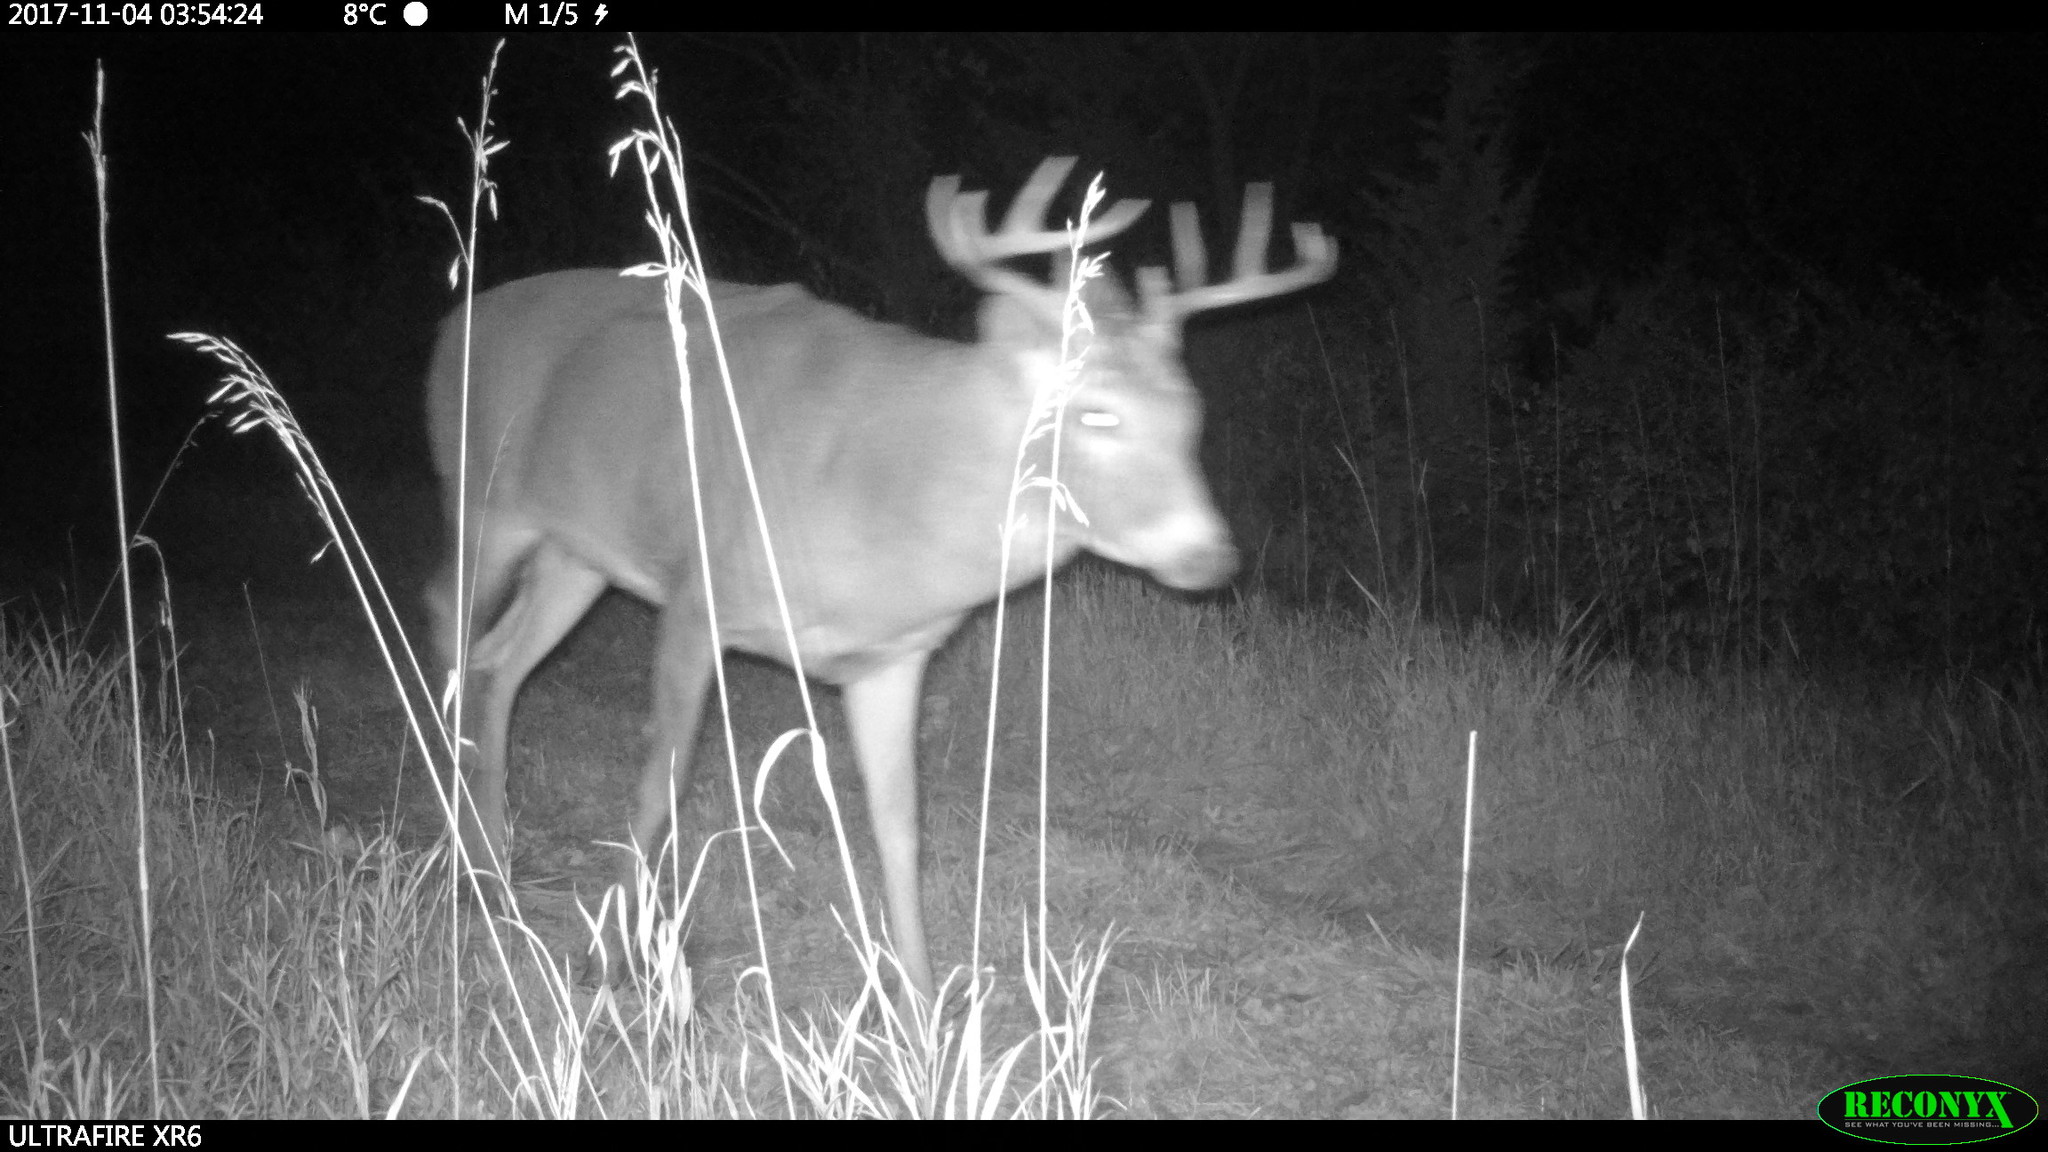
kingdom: Animalia
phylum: Chordata
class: Mammalia
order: Artiodactyla
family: Cervidae
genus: Odocoileus
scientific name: Odocoileus virginianus
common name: White-tailed deer
